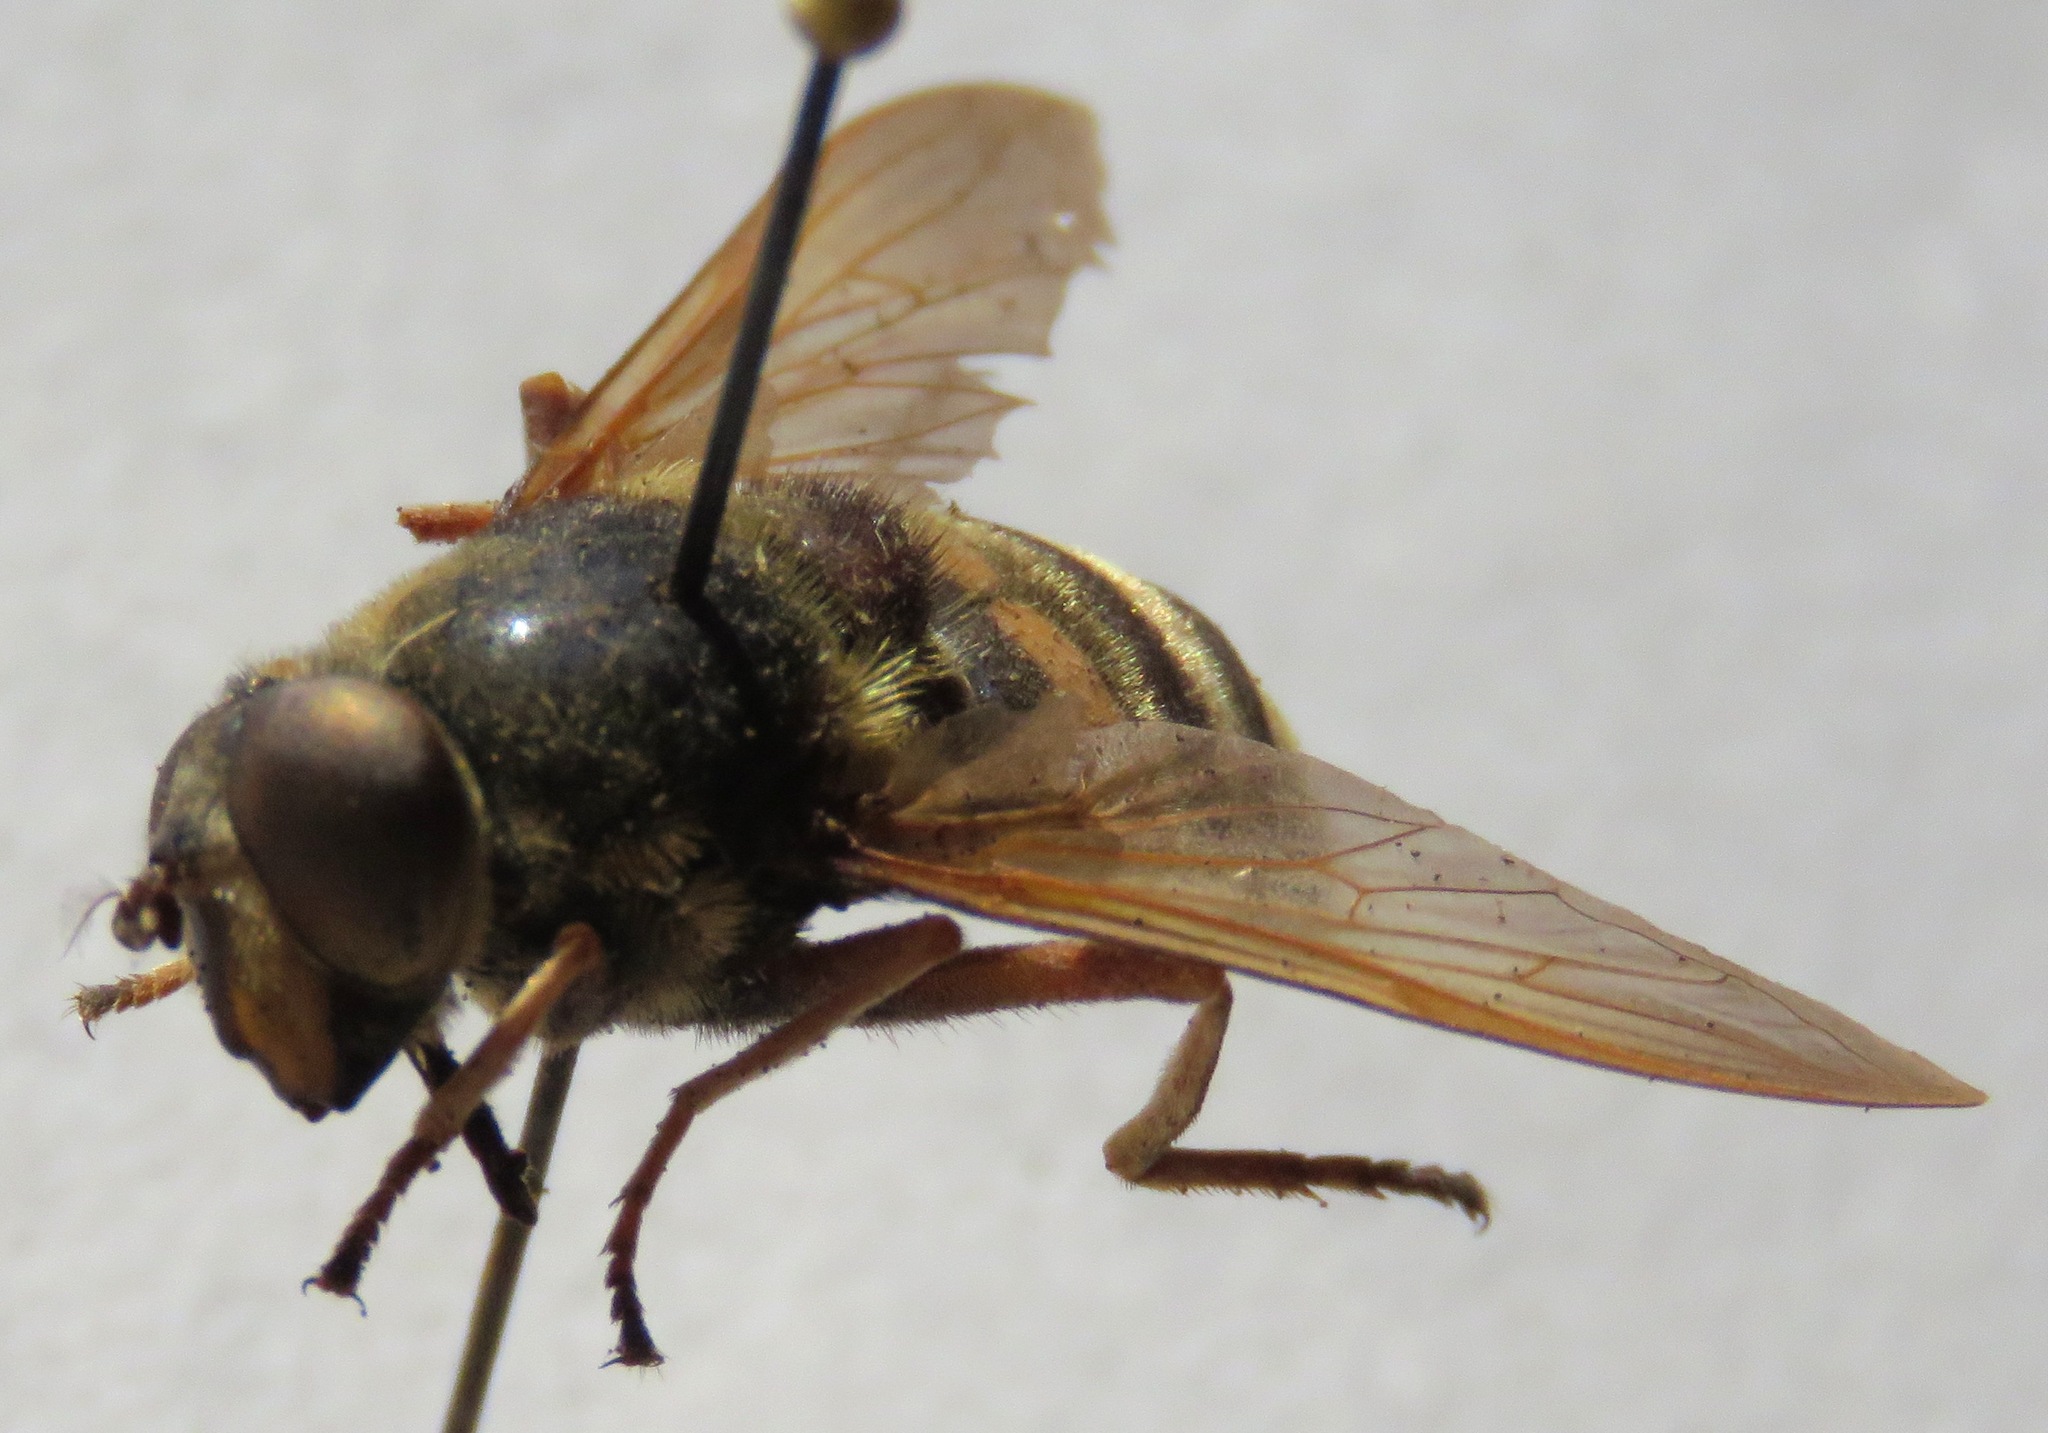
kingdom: Animalia
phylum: Arthropoda
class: Insecta
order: Diptera
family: Syrphidae
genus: Sericomyia
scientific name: Sericomyia silentis
